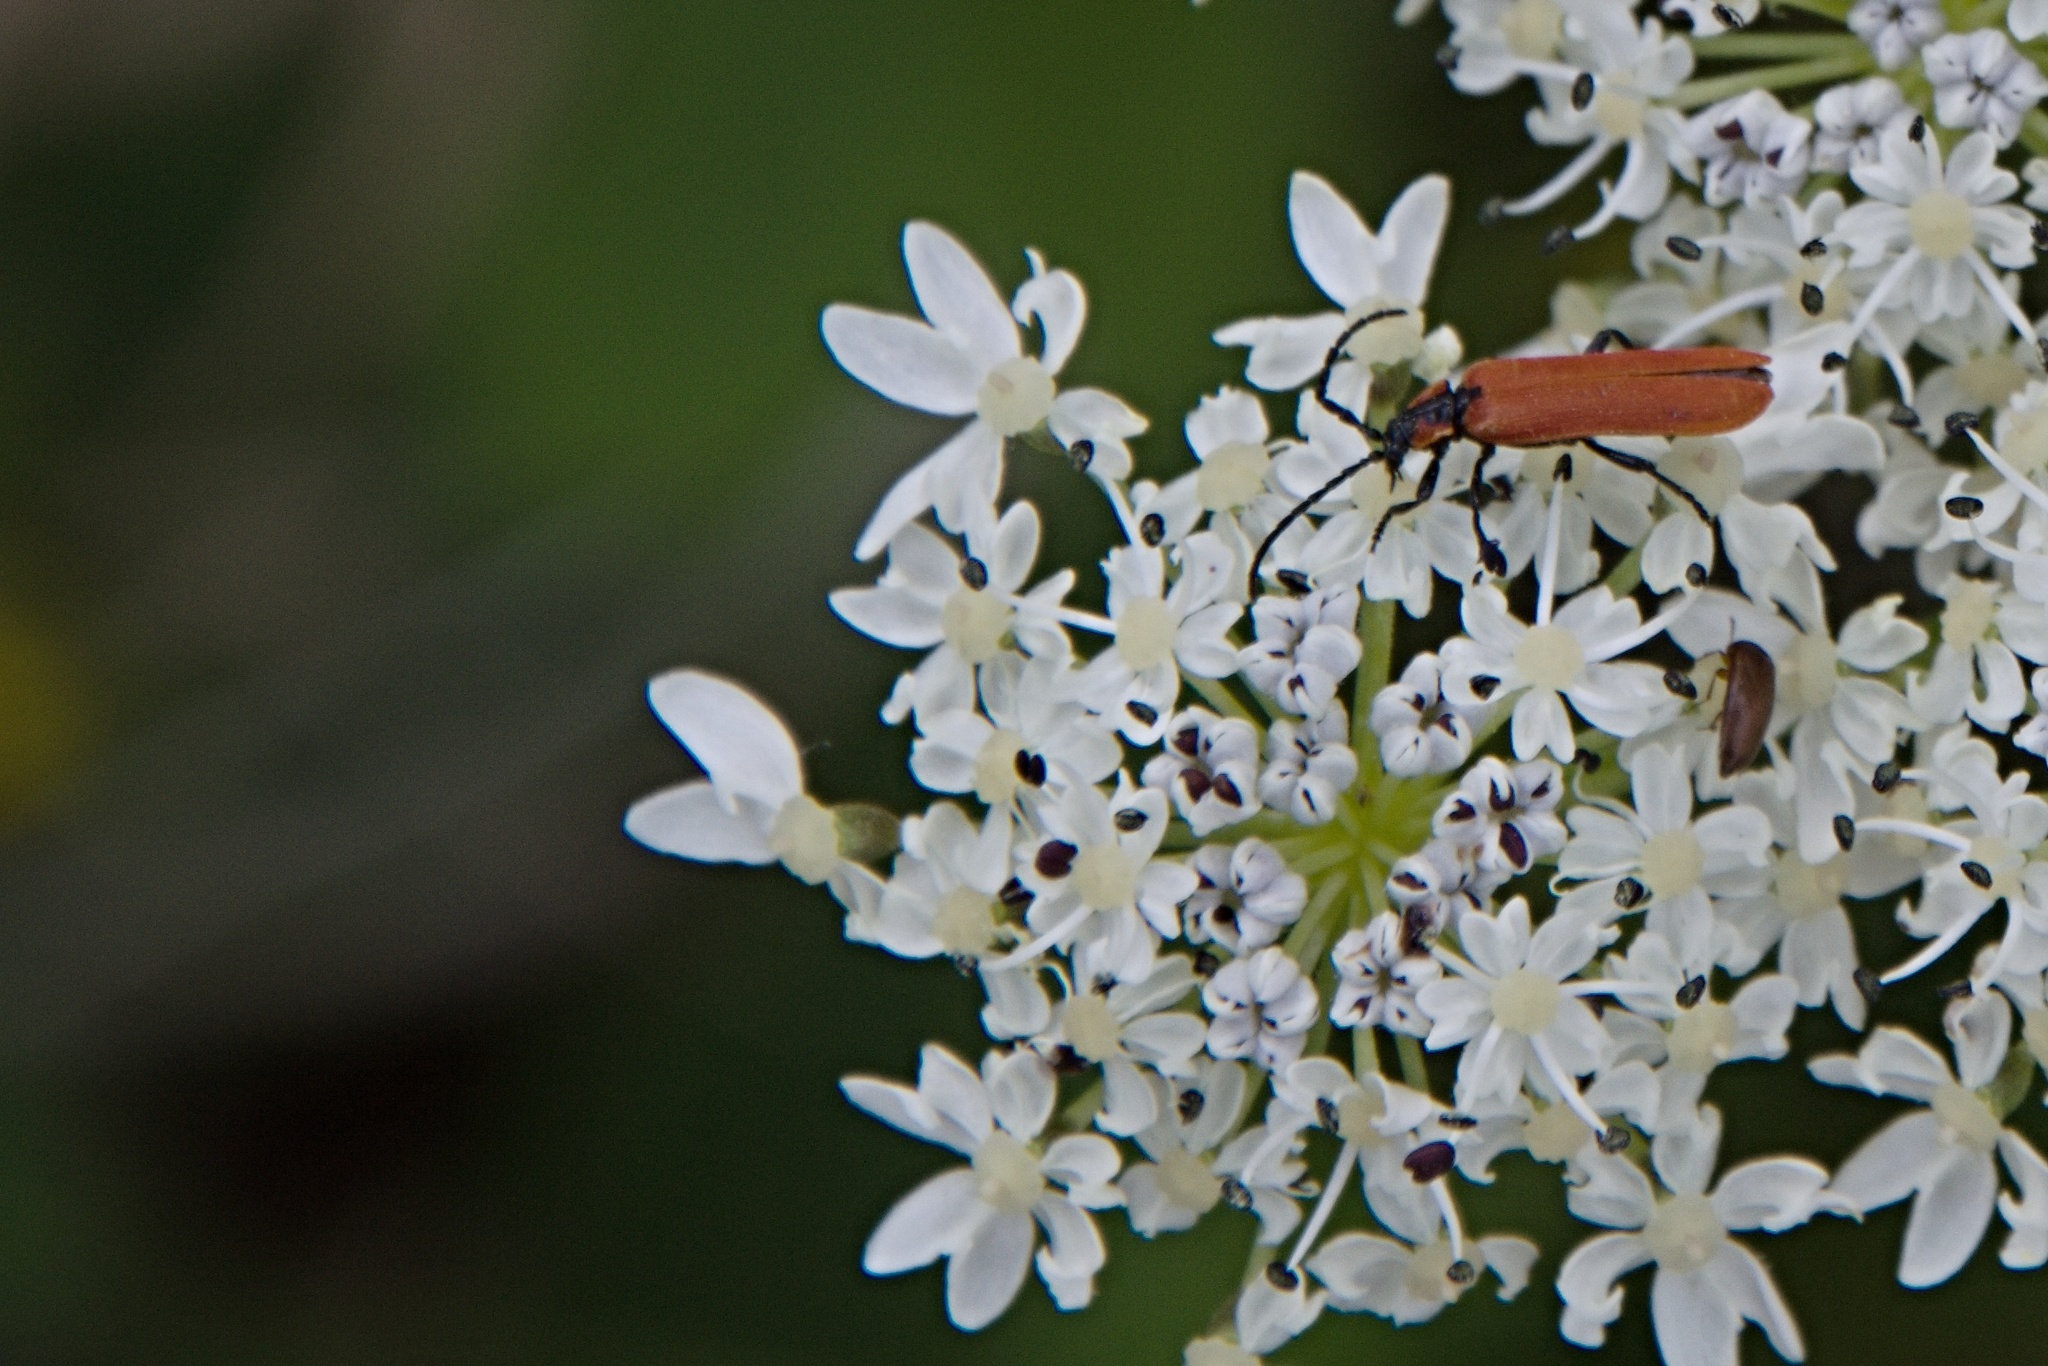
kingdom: Animalia
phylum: Arthropoda
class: Insecta
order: Coleoptera
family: Lycidae
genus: Lygistopterus
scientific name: Lygistopterus sanguineus
